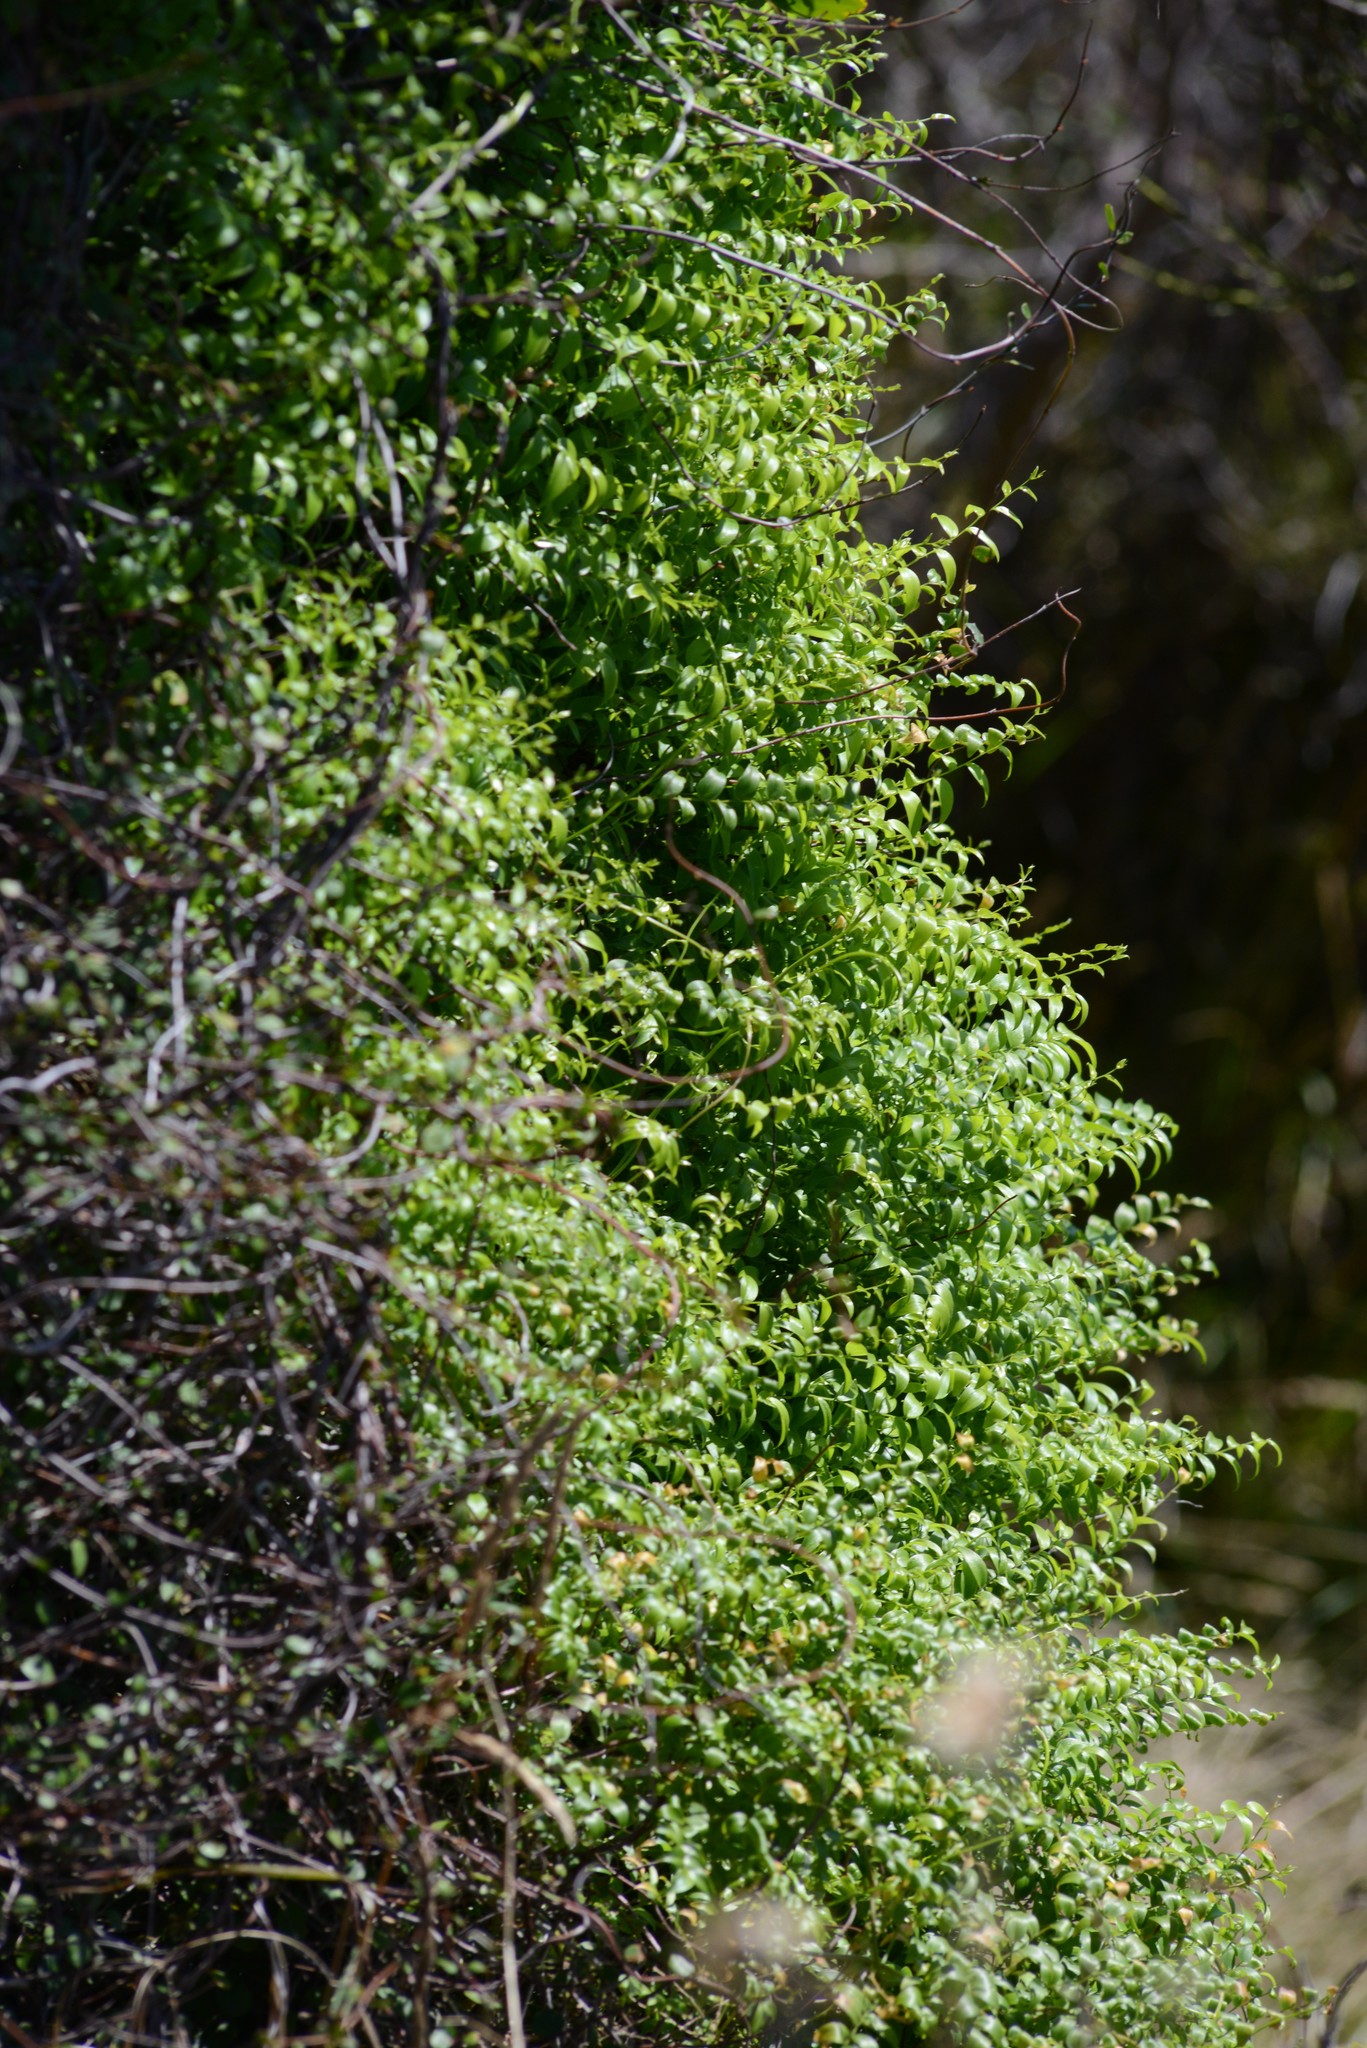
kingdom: Plantae
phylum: Tracheophyta
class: Liliopsida
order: Asparagales
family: Asparagaceae
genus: Asparagus
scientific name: Asparagus asparagoides
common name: African asparagus fern
